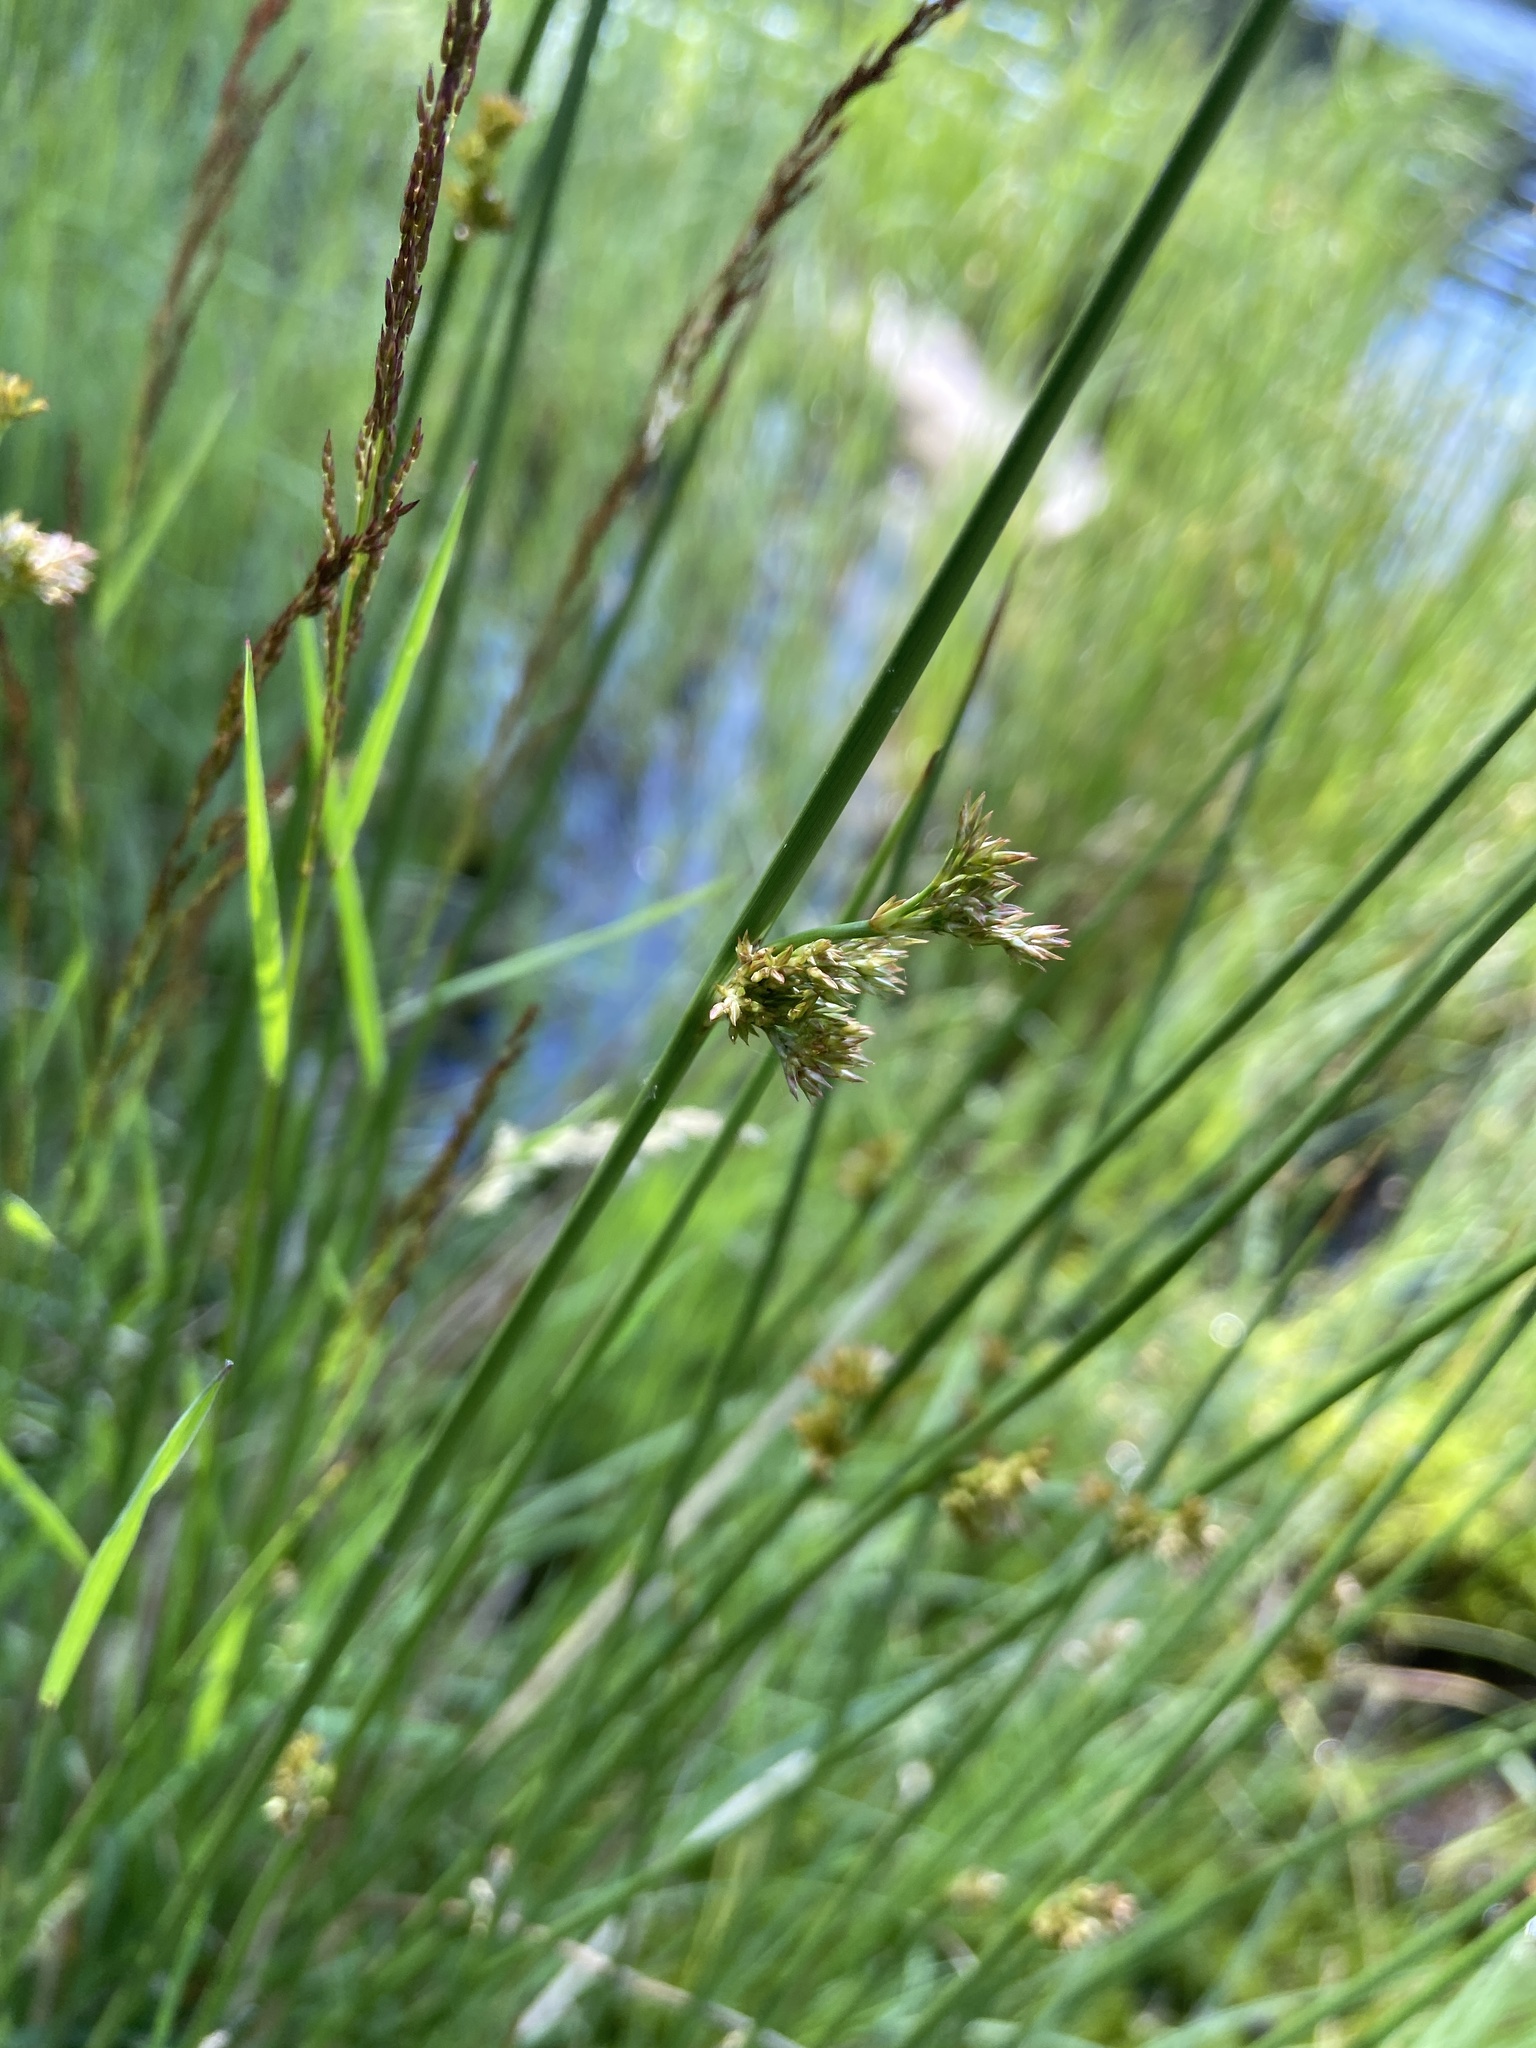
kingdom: Plantae
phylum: Tracheophyta
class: Liliopsida
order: Poales
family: Juncaceae
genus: Juncus
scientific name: Juncus effusus
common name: Soft rush
